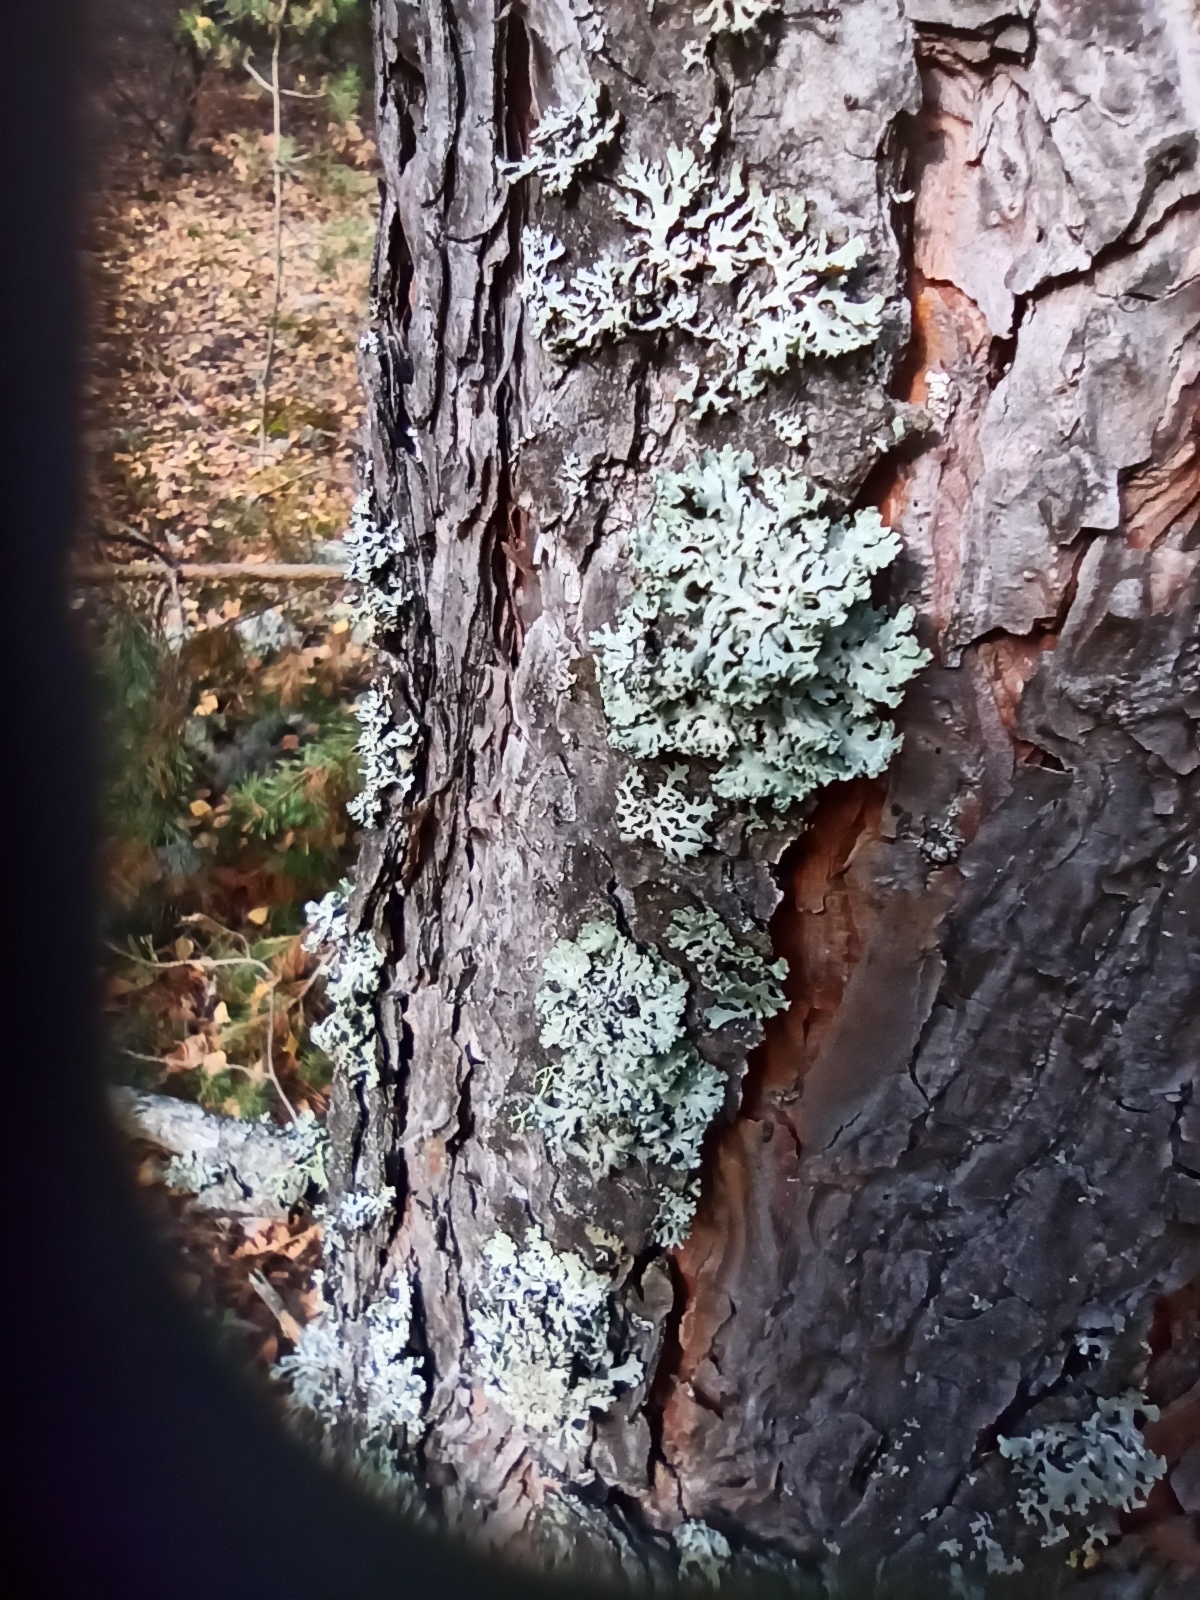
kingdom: Fungi
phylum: Ascomycota
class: Lecanoromycetes
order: Lecanorales
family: Parmeliaceae
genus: Hypogymnia
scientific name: Hypogymnia physodes
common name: Dark crottle
